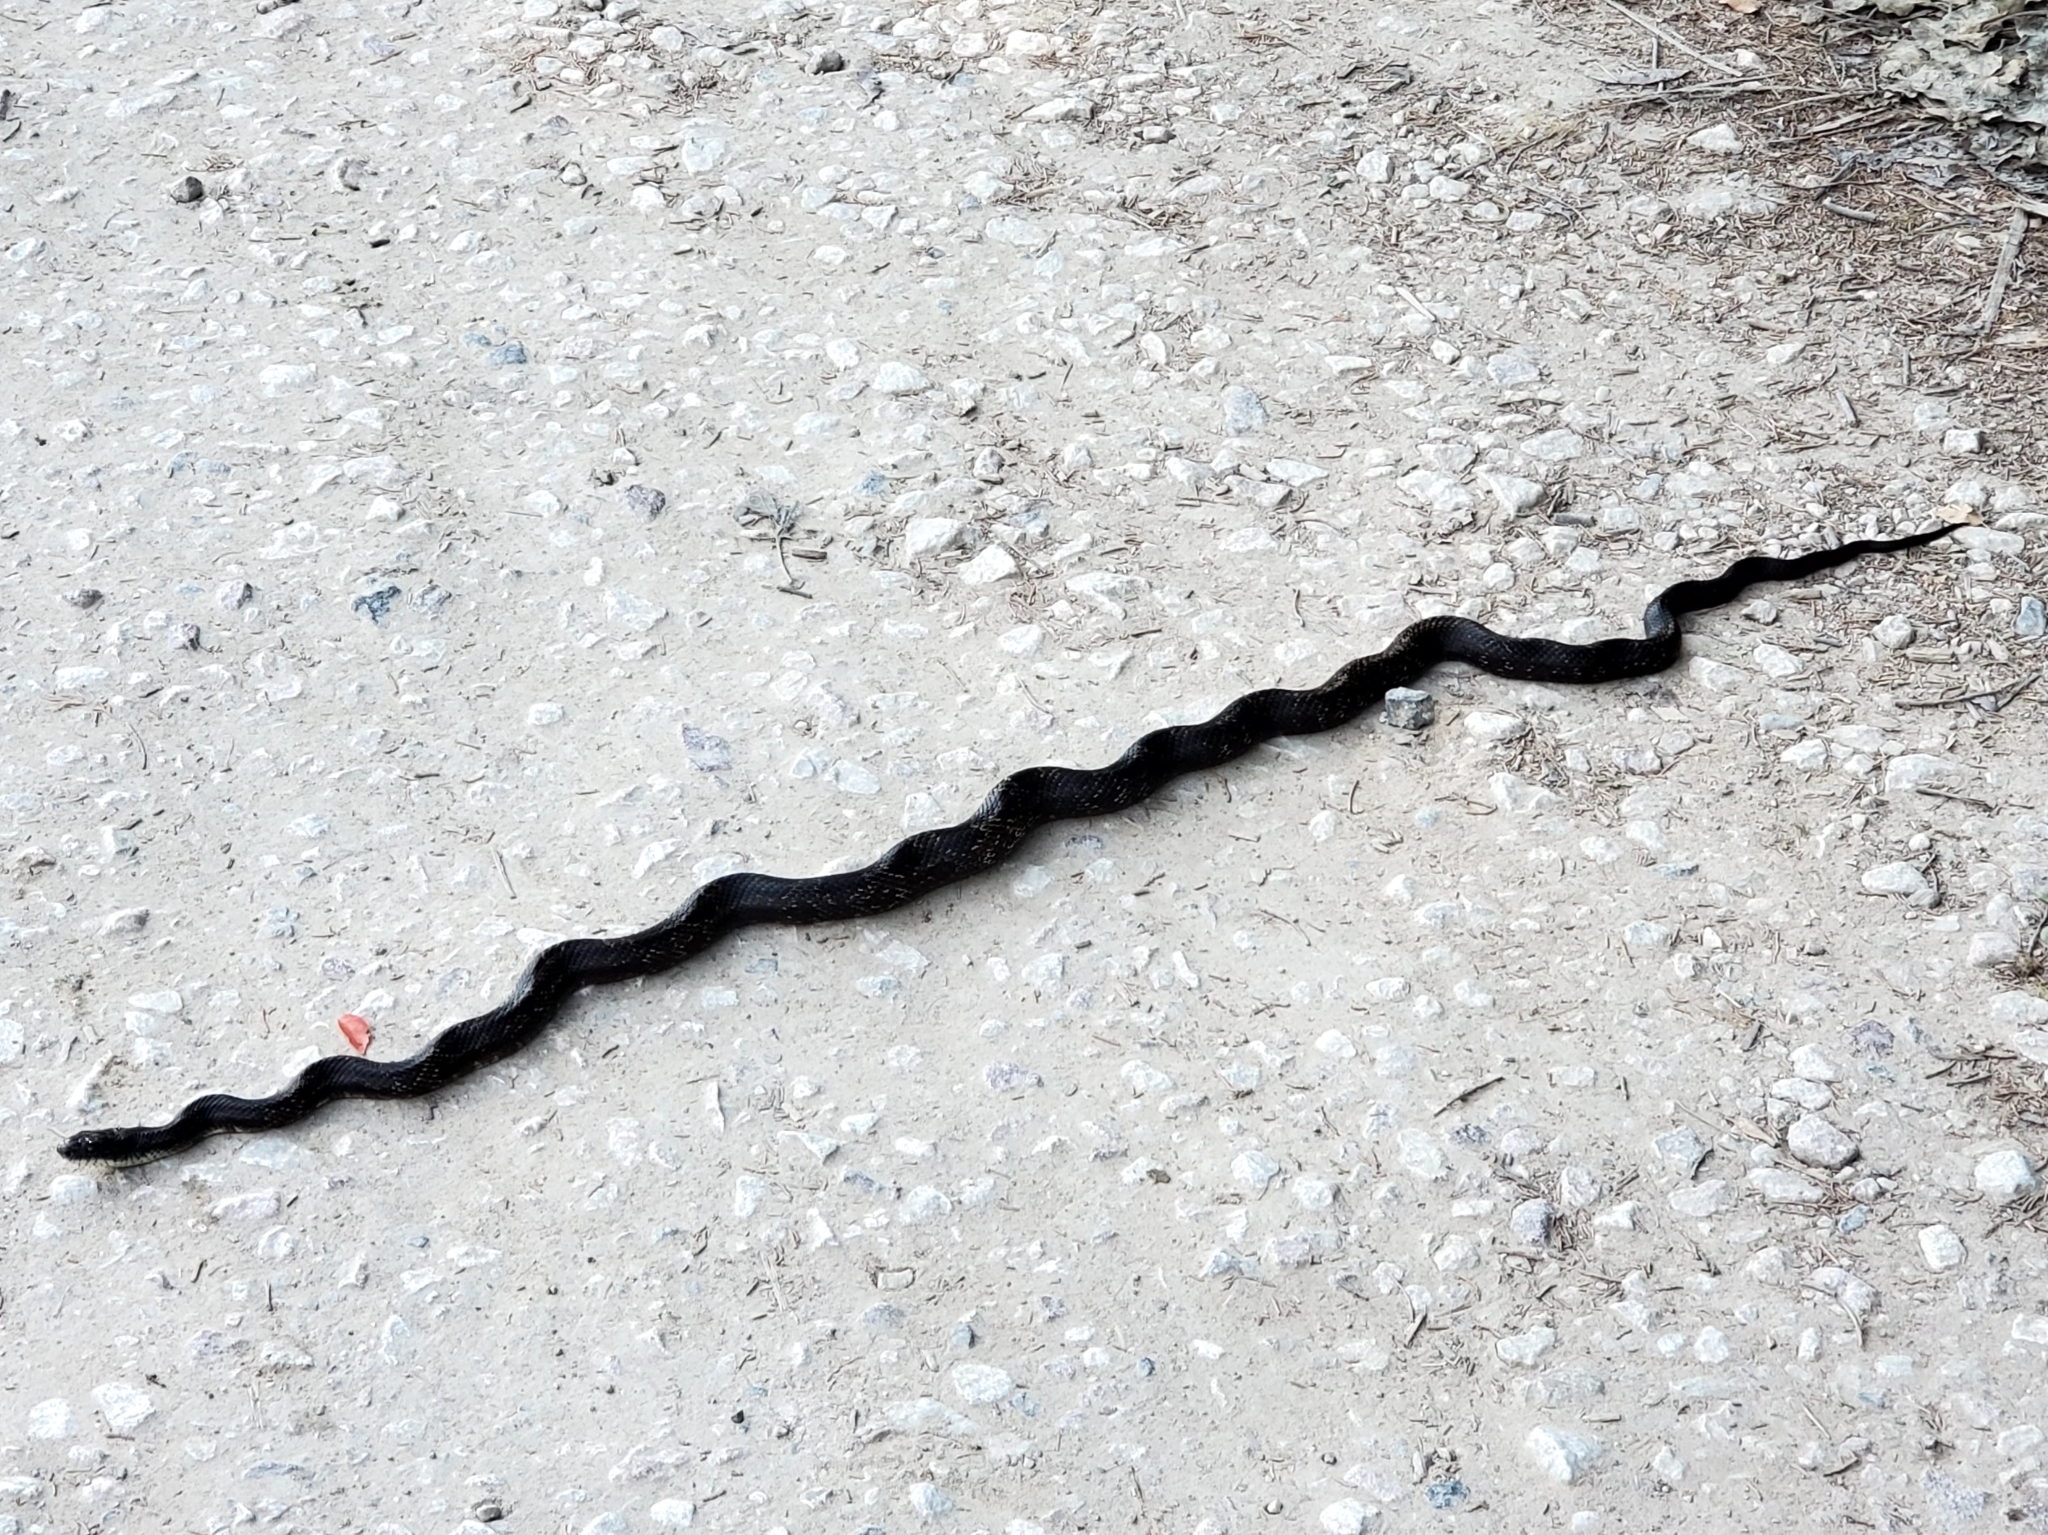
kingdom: Animalia
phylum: Chordata
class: Squamata
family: Colubridae
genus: Pantherophis
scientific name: Pantherophis spiloides
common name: Gray rat snake
